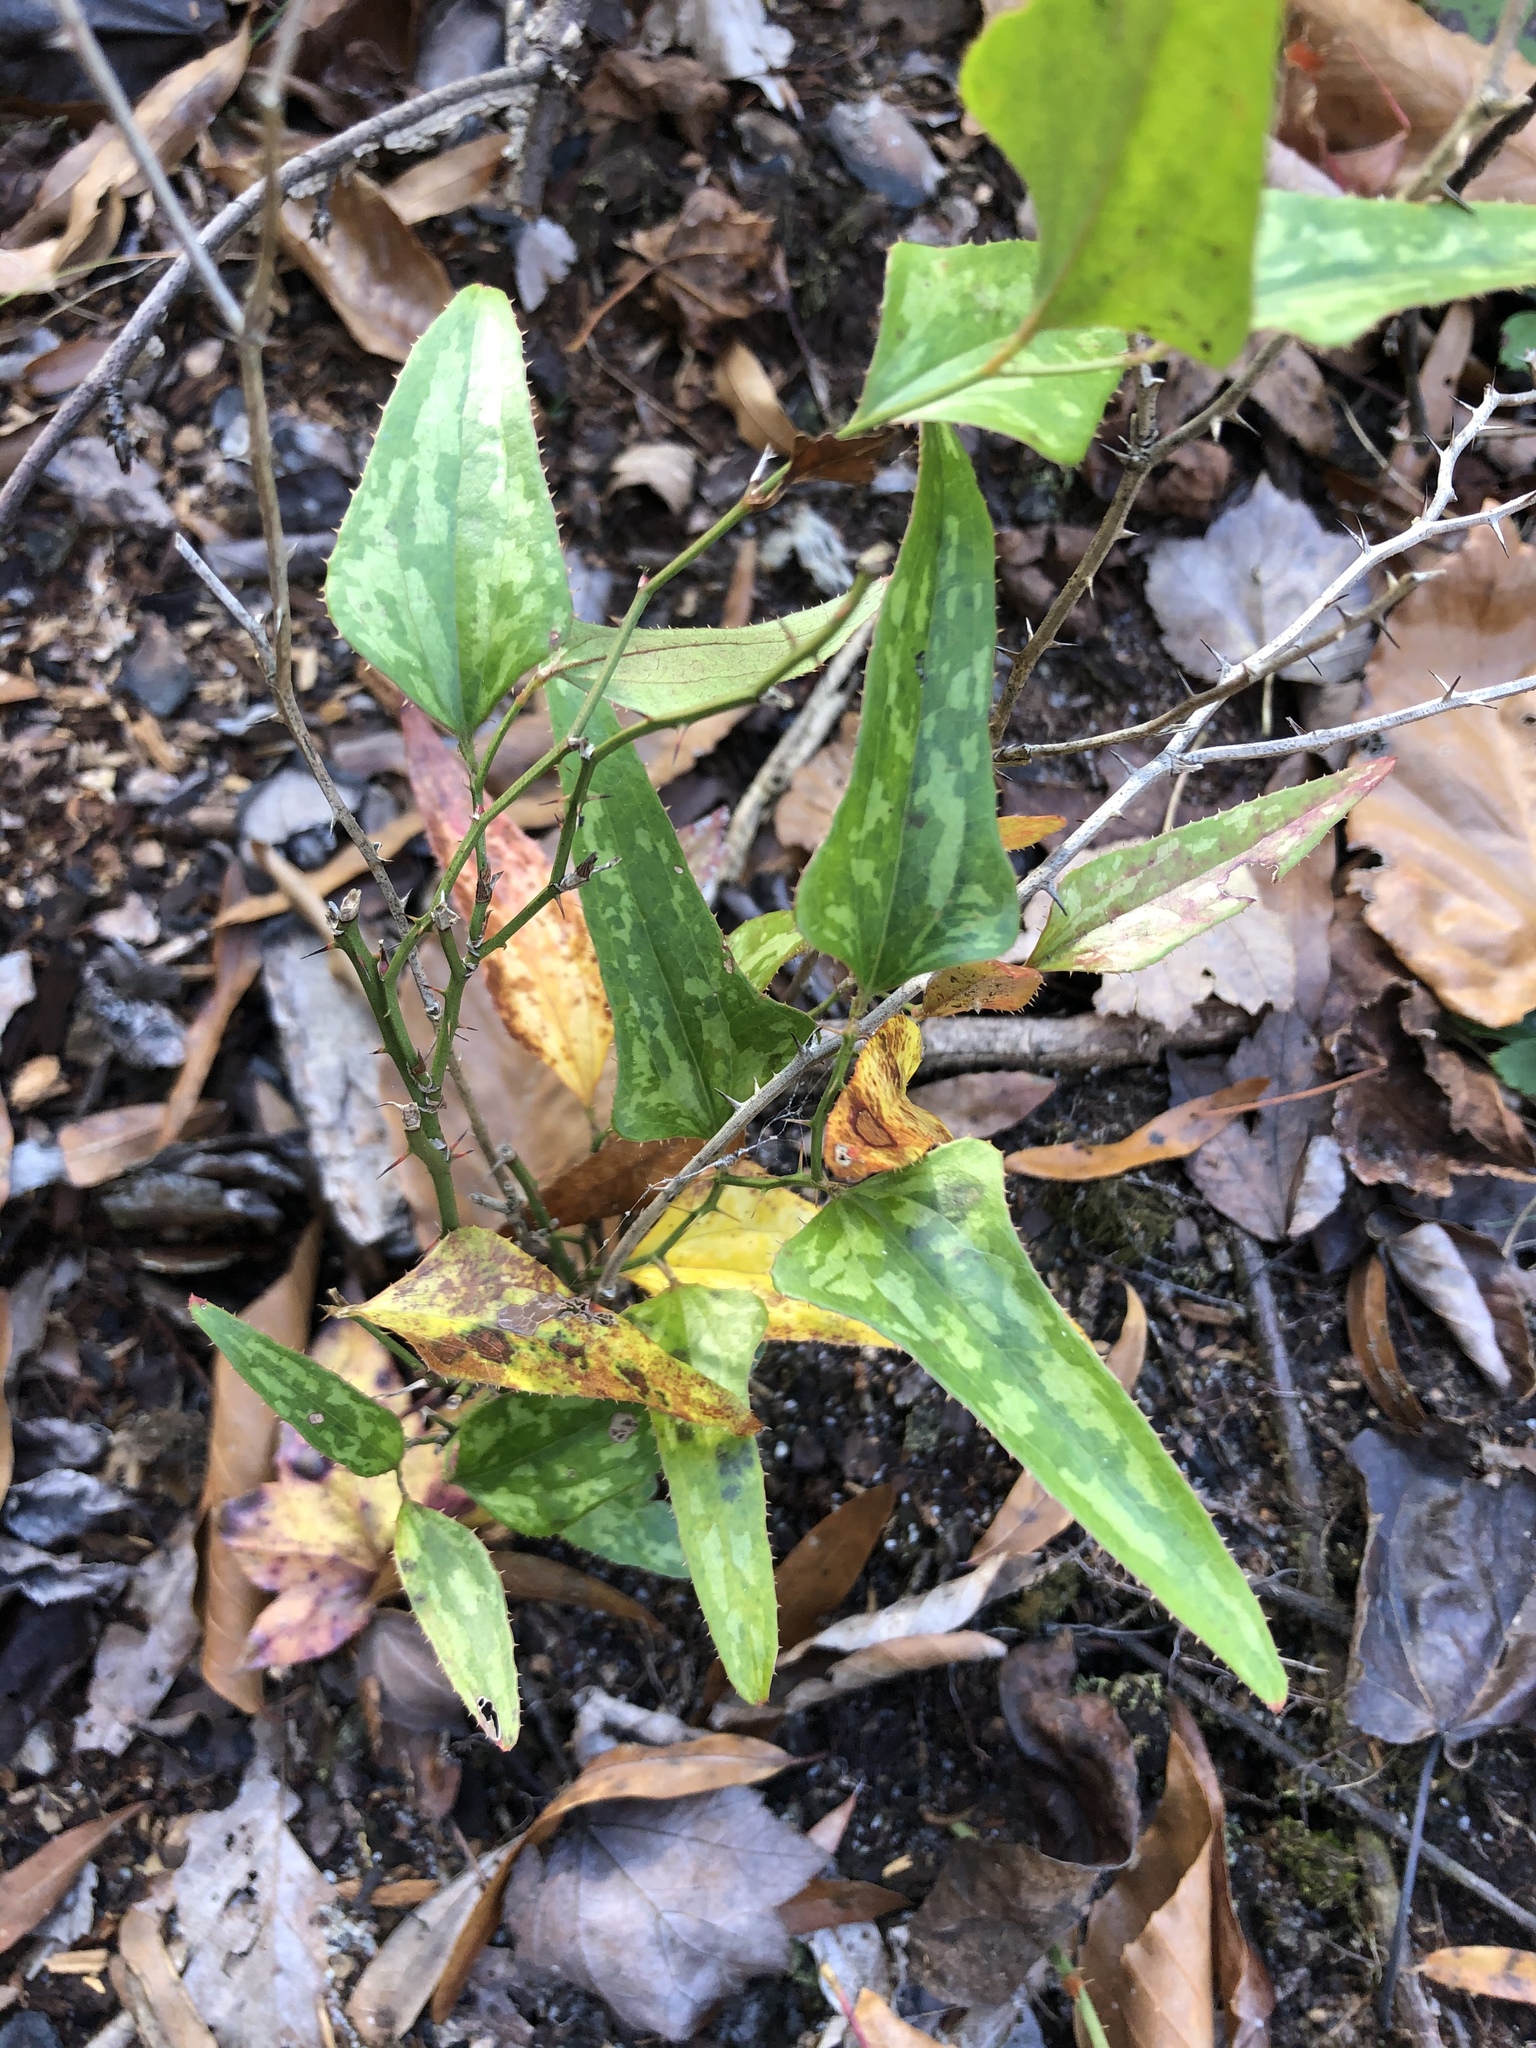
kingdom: Plantae
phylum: Tracheophyta
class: Liliopsida
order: Liliales
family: Smilacaceae
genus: Smilax
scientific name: Smilax bona-nox
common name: Catbrier
